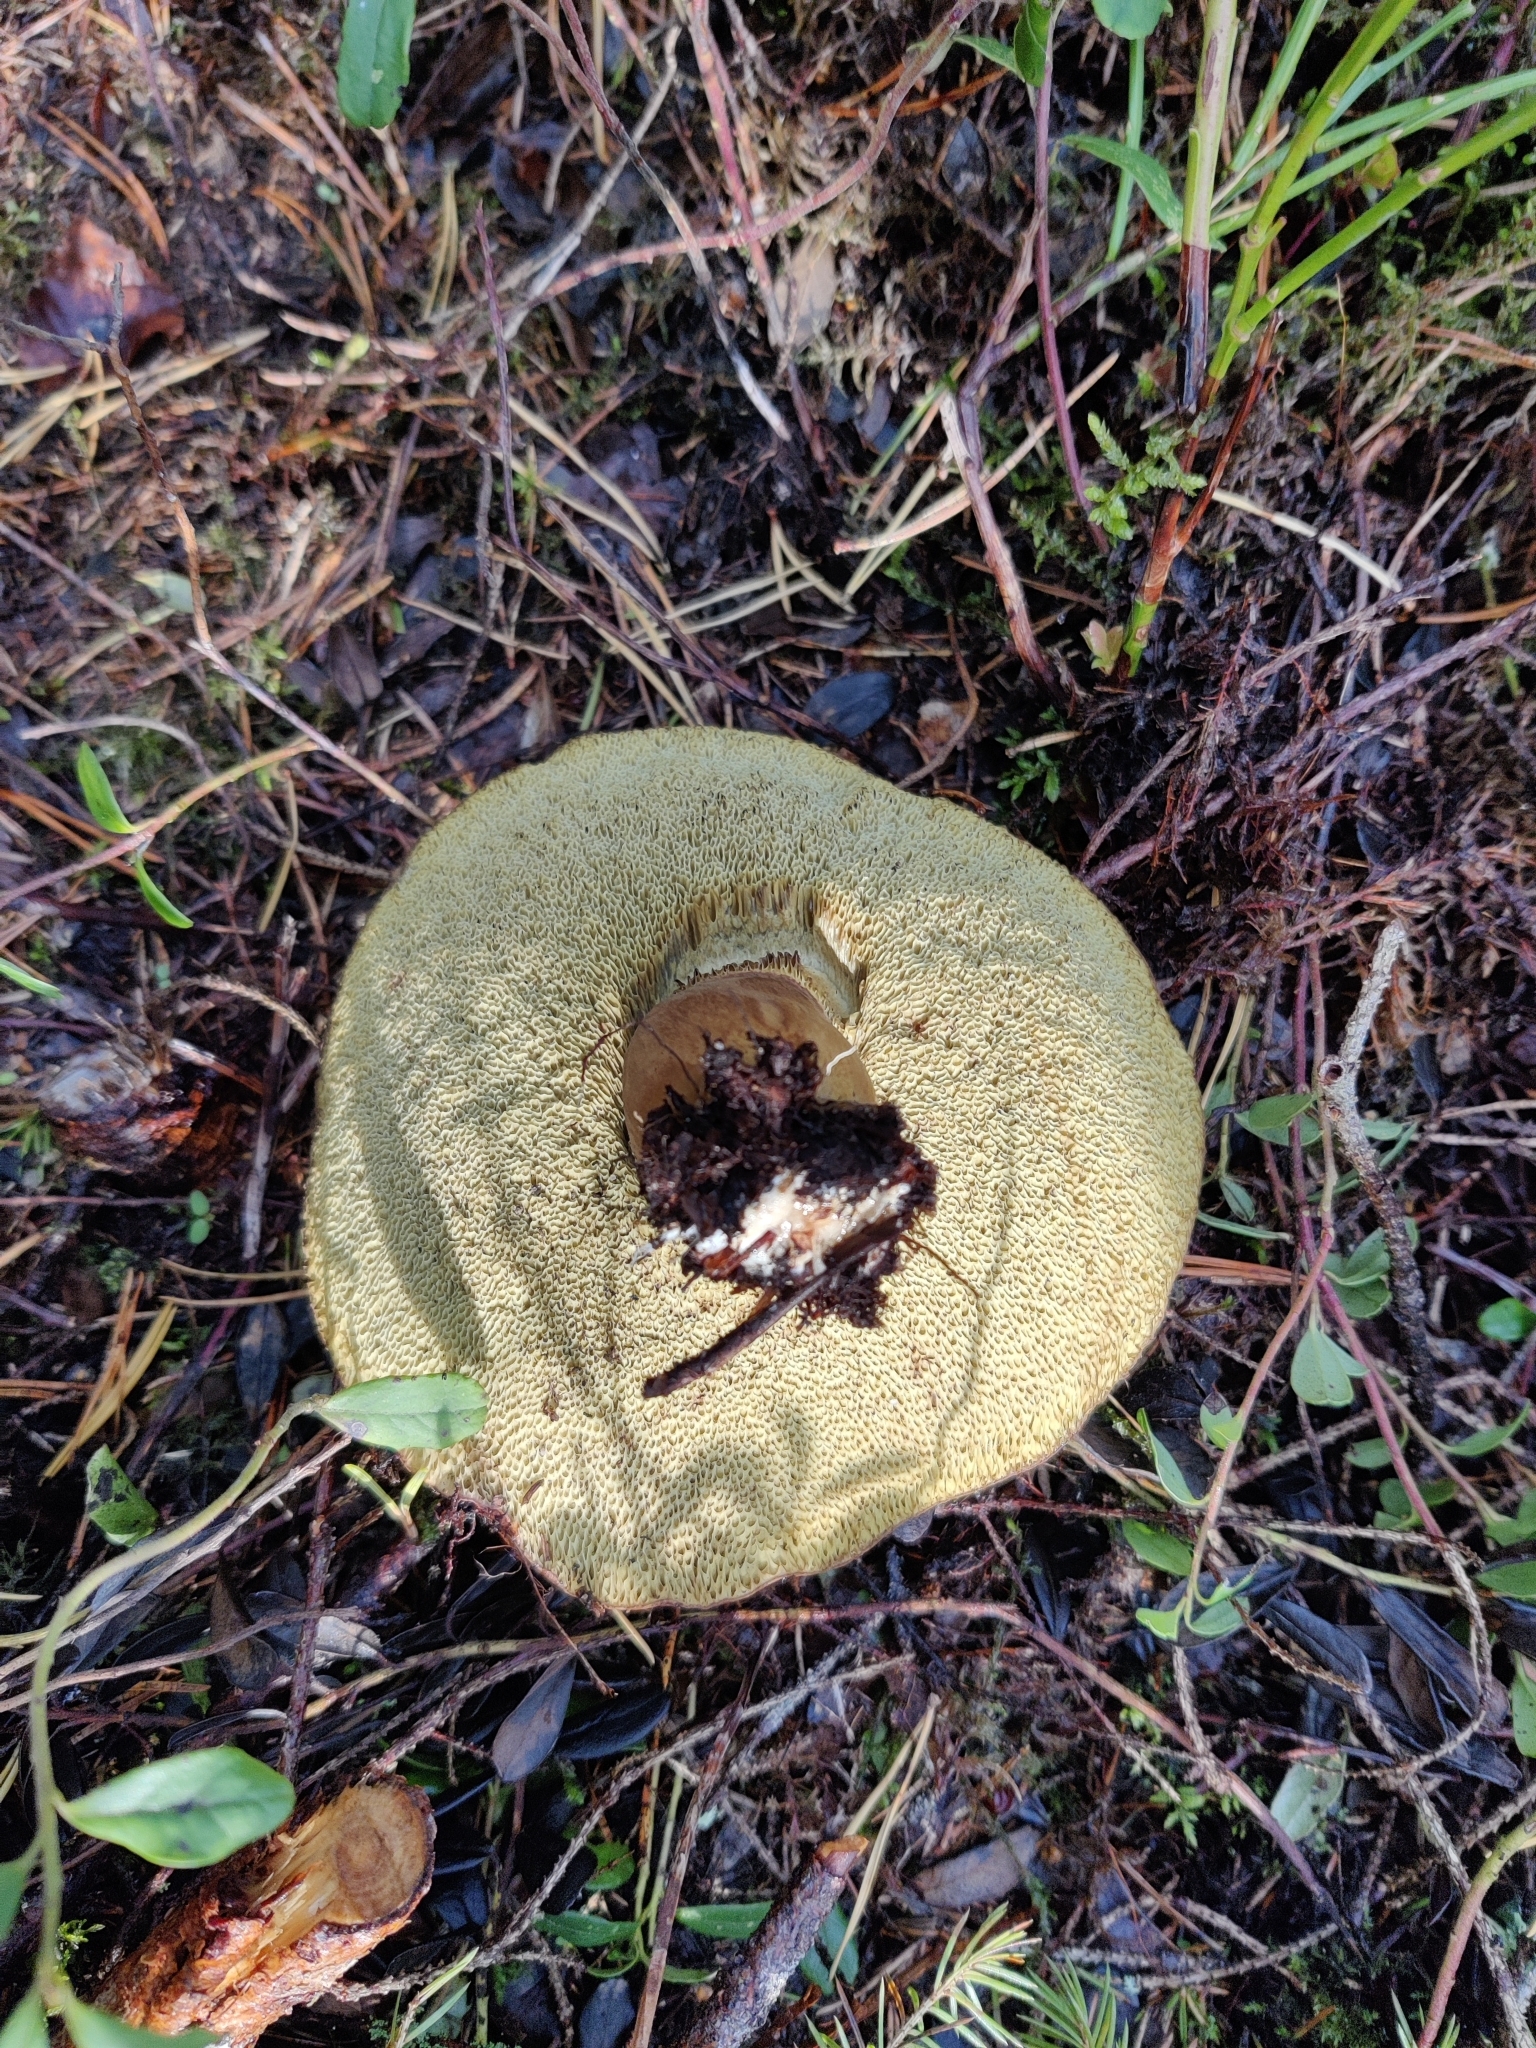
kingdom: Fungi
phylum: Basidiomycota
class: Agaricomycetes
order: Boletales
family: Boletaceae
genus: Imleria
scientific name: Imleria badia
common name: Bay bolete
